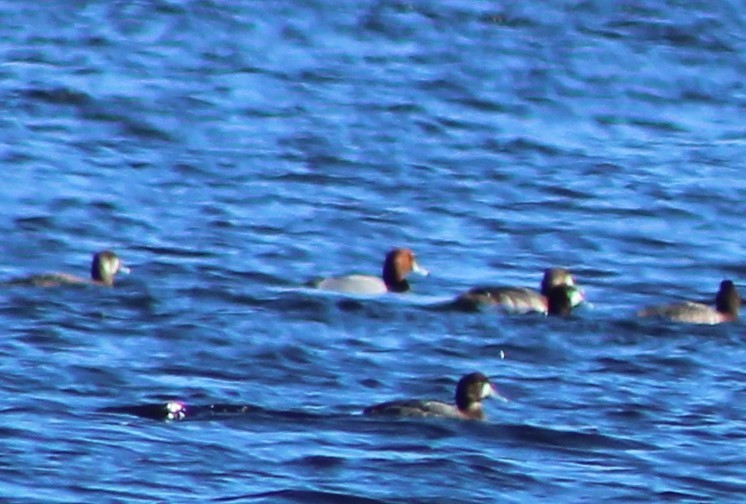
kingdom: Animalia
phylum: Chordata
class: Aves
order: Anseriformes
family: Anatidae
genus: Aythya
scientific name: Aythya americana
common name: Redhead
